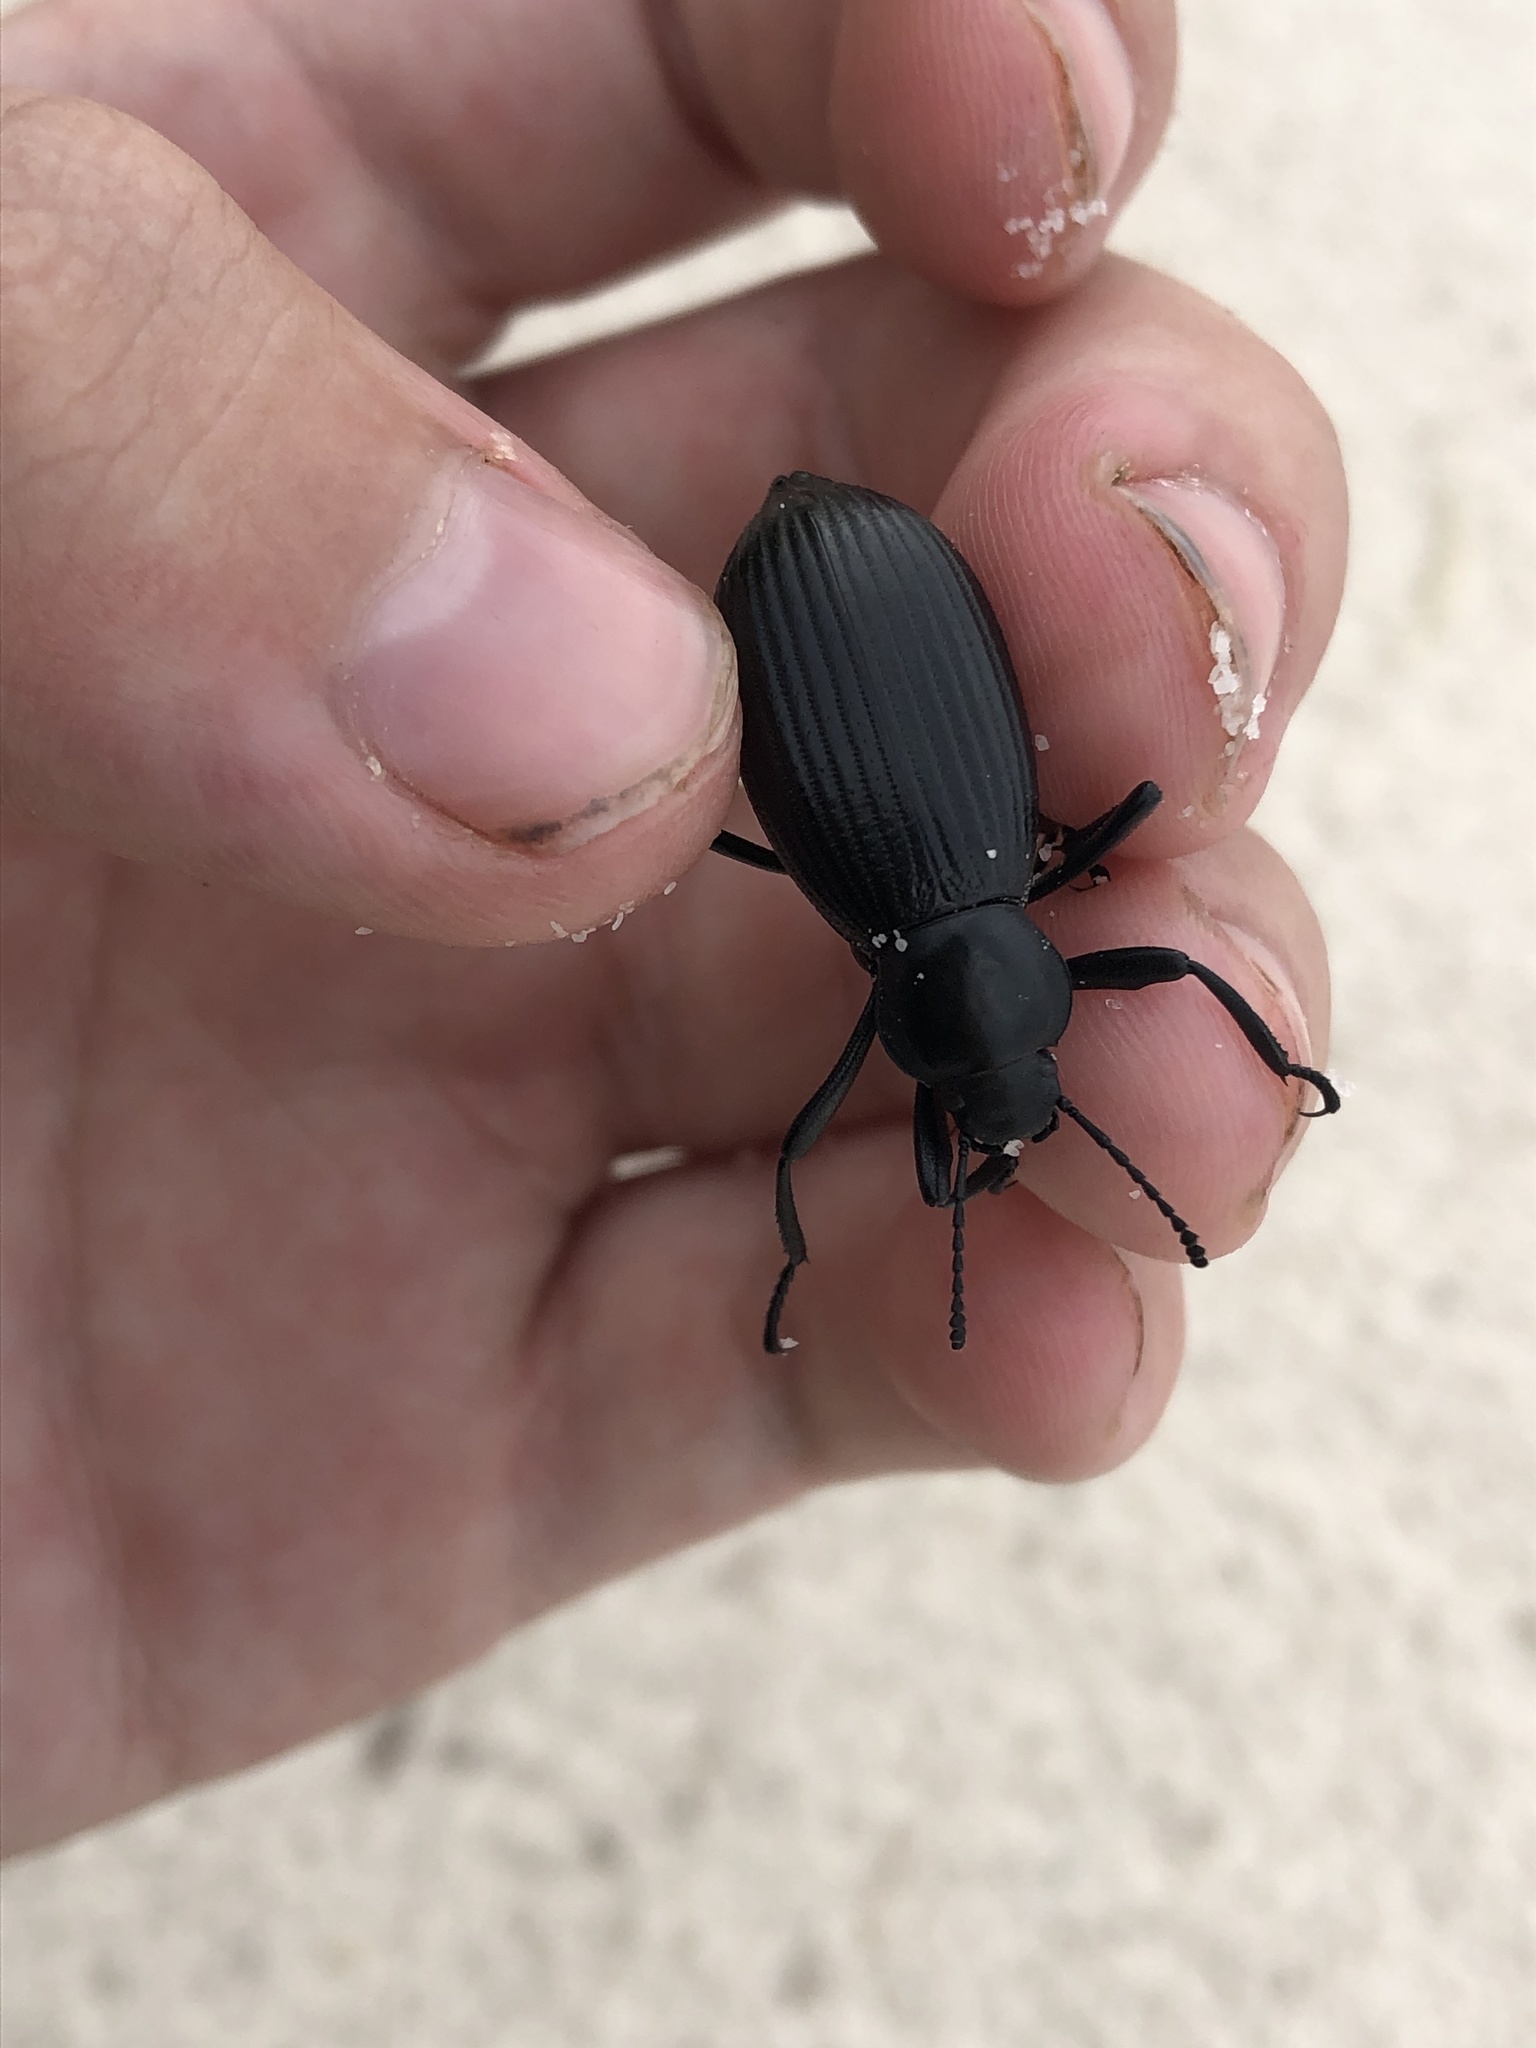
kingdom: Animalia
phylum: Arthropoda
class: Insecta
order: Coleoptera
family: Tenebrionidae
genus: Eleodes
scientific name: Eleodes hispilabris
